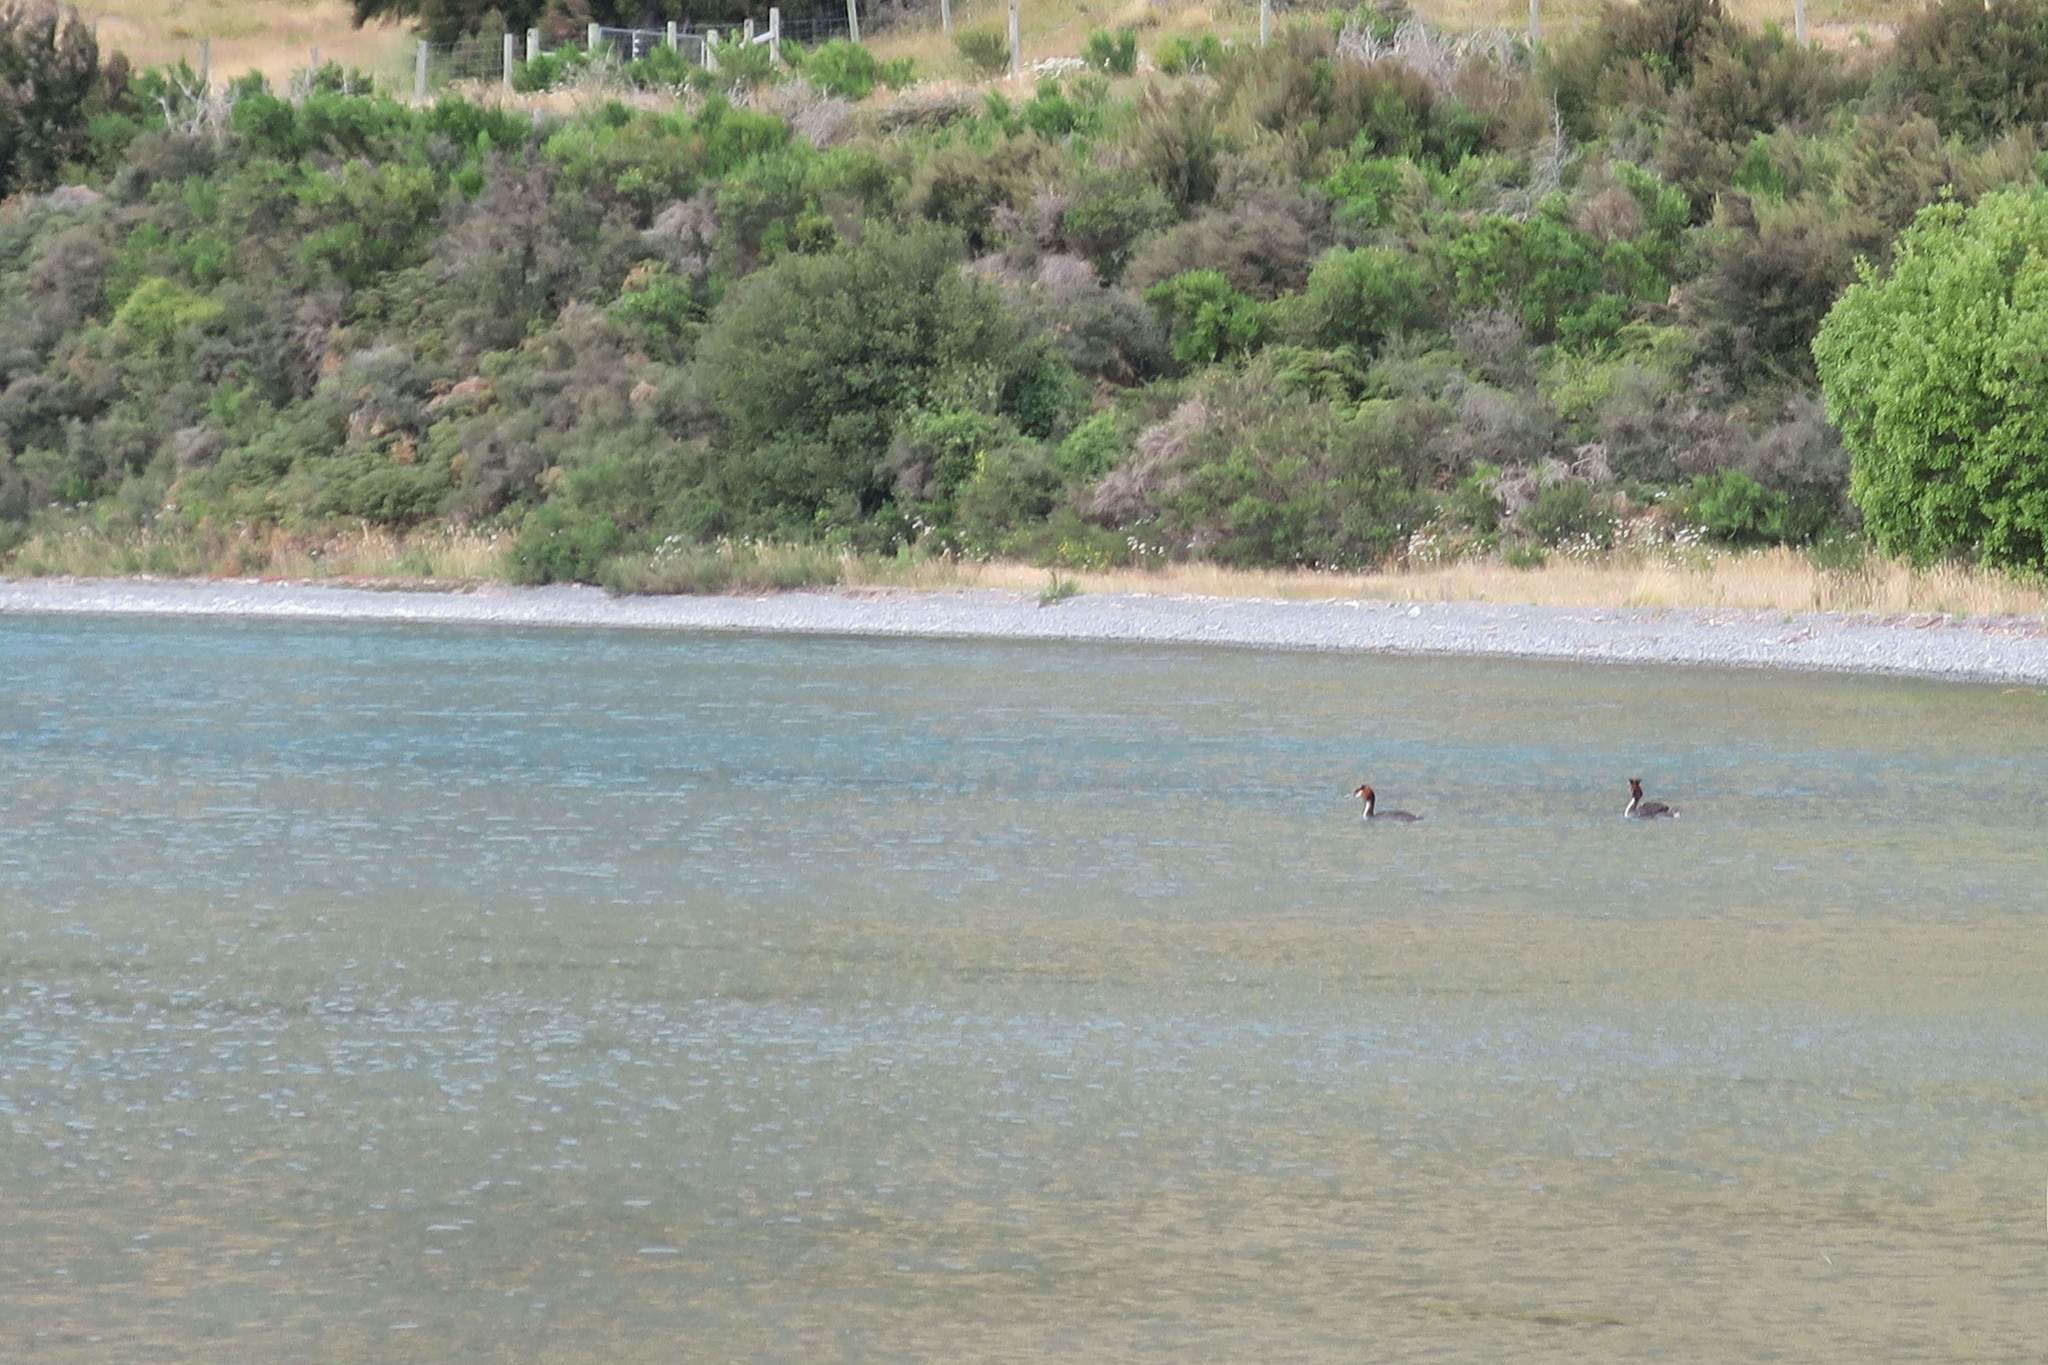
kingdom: Animalia
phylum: Chordata
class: Aves
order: Podicipediformes
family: Podicipedidae
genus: Podiceps
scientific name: Podiceps cristatus
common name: Great crested grebe
